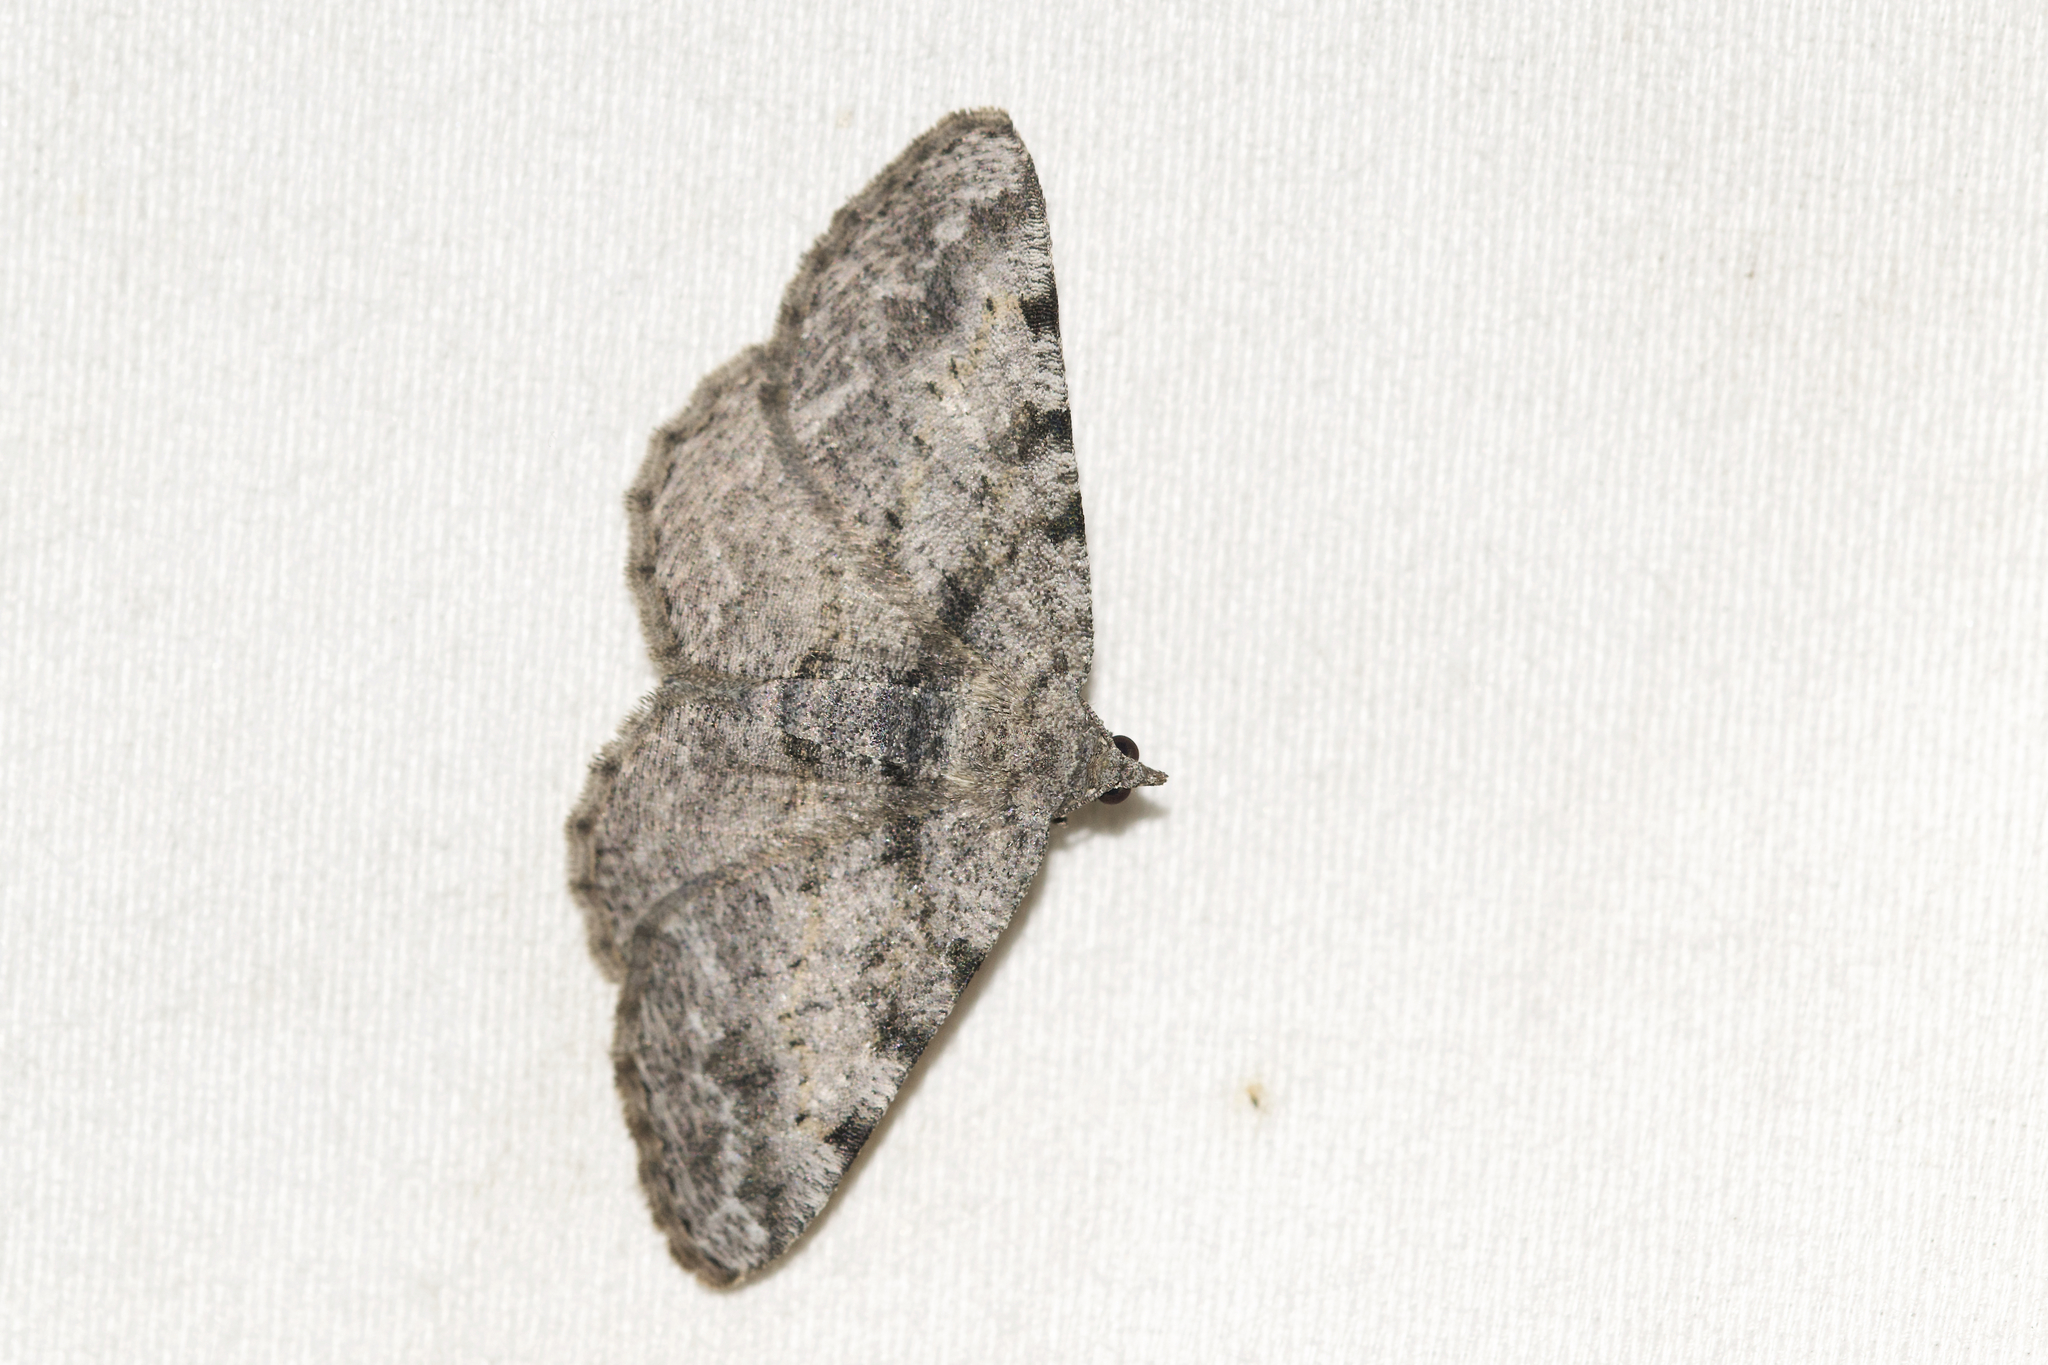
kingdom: Animalia
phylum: Arthropoda
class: Insecta
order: Lepidoptera
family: Geometridae
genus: Digrammia
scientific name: Digrammia gnophosaria
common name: Hollow-spotted angle
